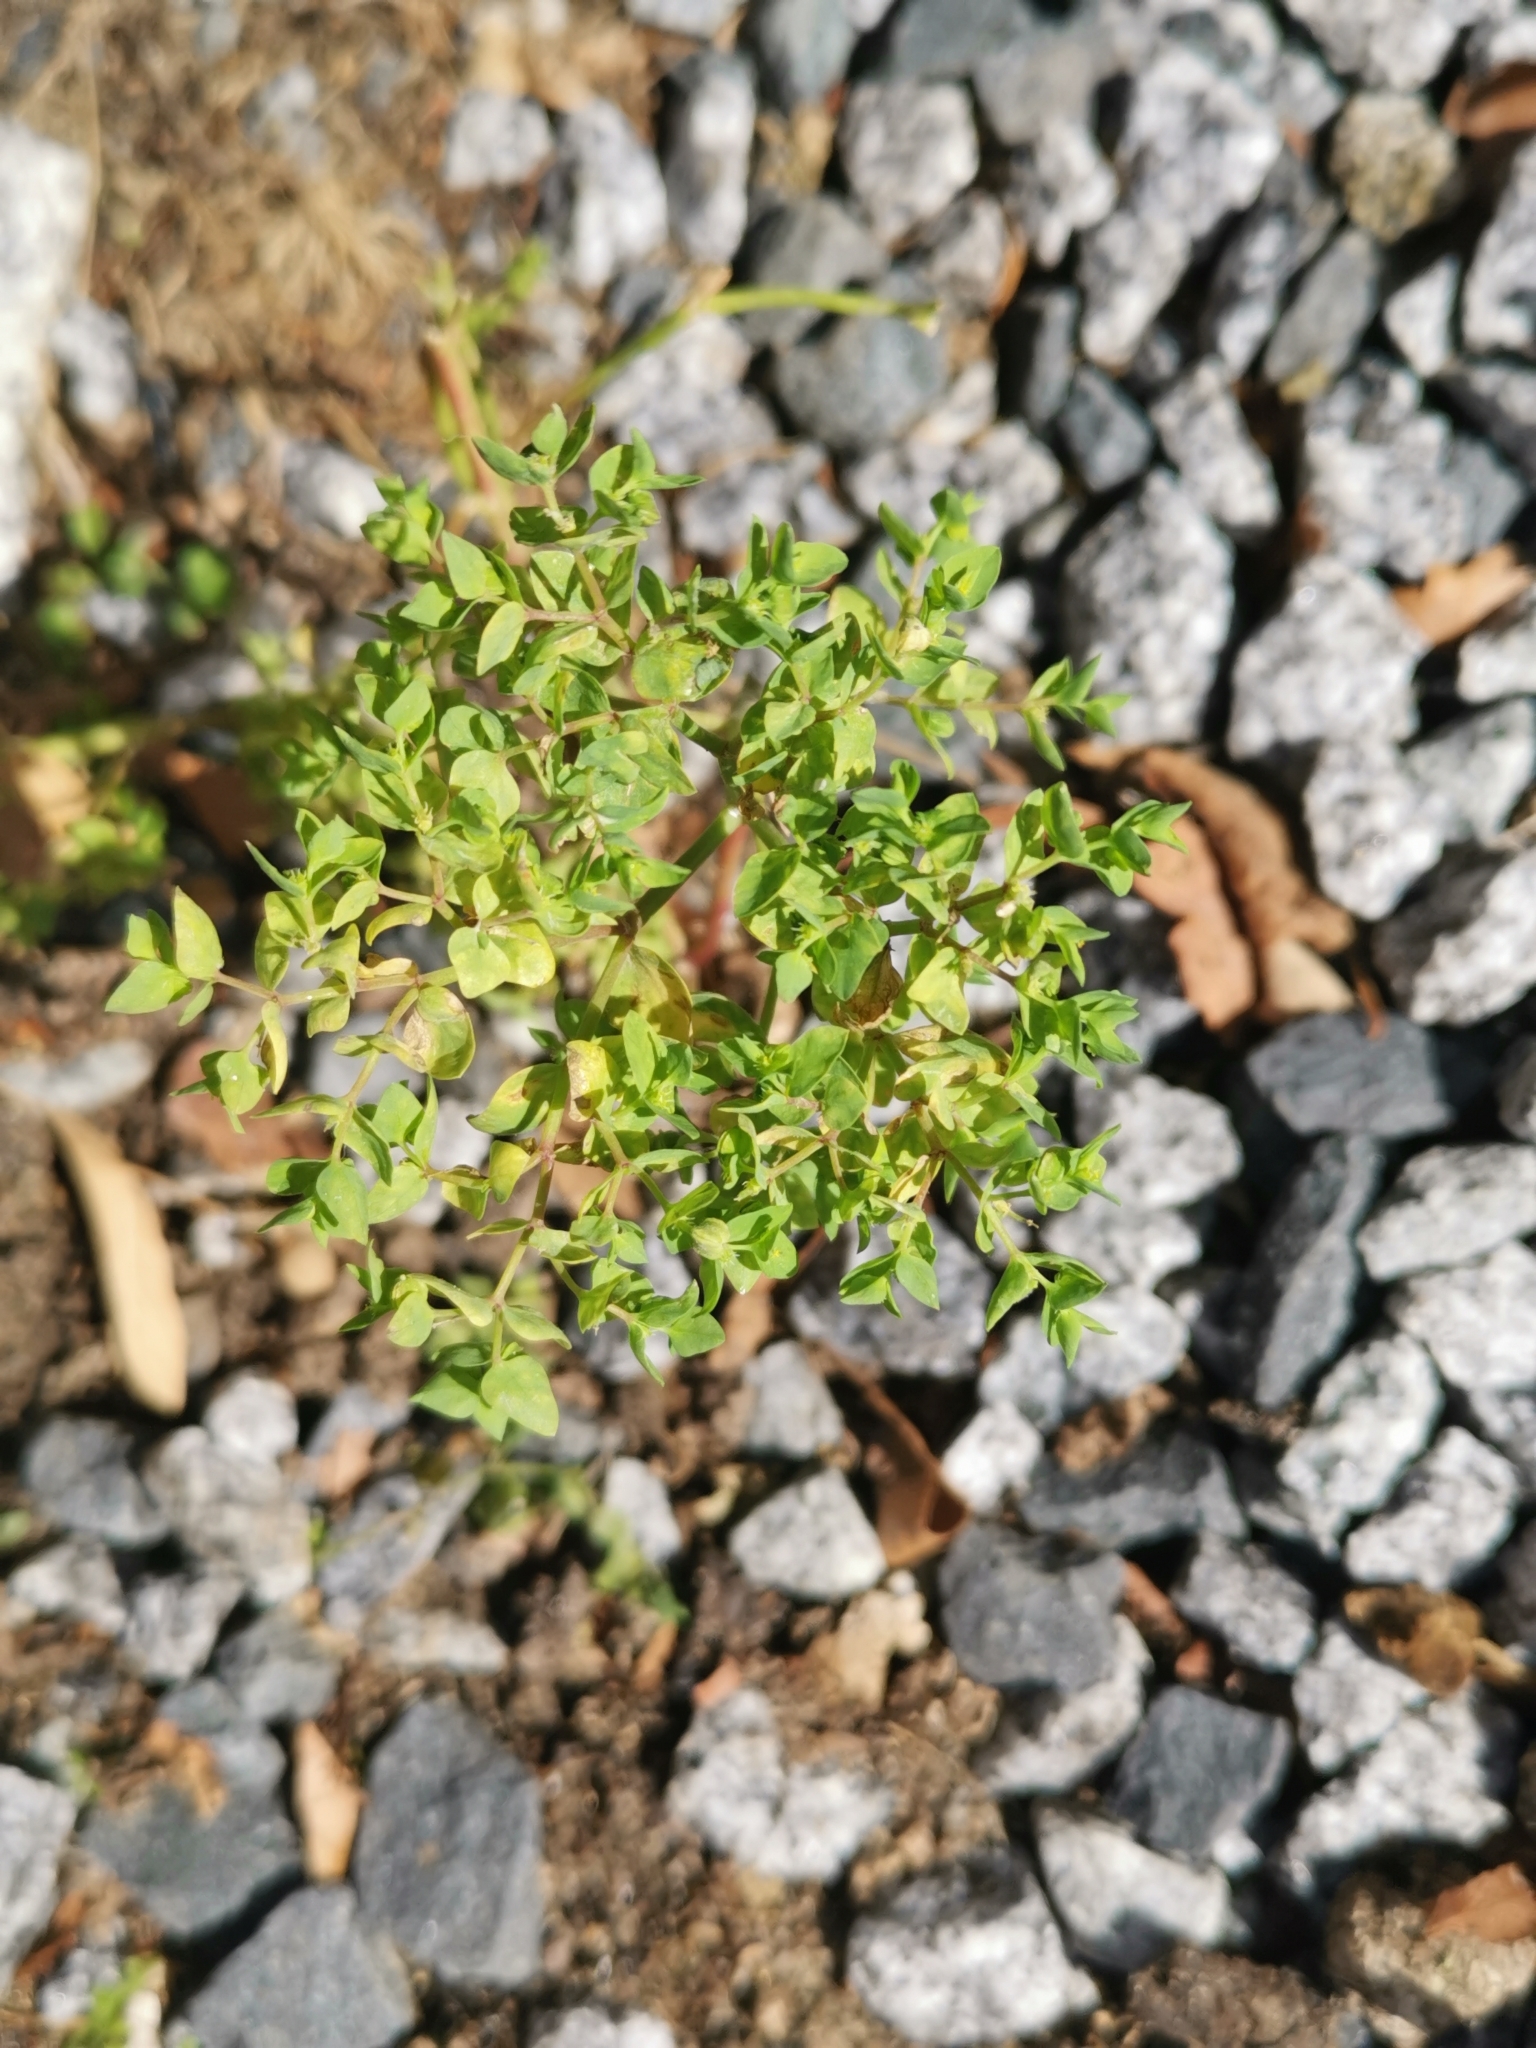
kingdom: Plantae
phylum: Tracheophyta
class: Magnoliopsida
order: Malpighiales
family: Euphorbiaceae
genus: Euphorbia
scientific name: Euphorbia peplus
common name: Petty spurge
